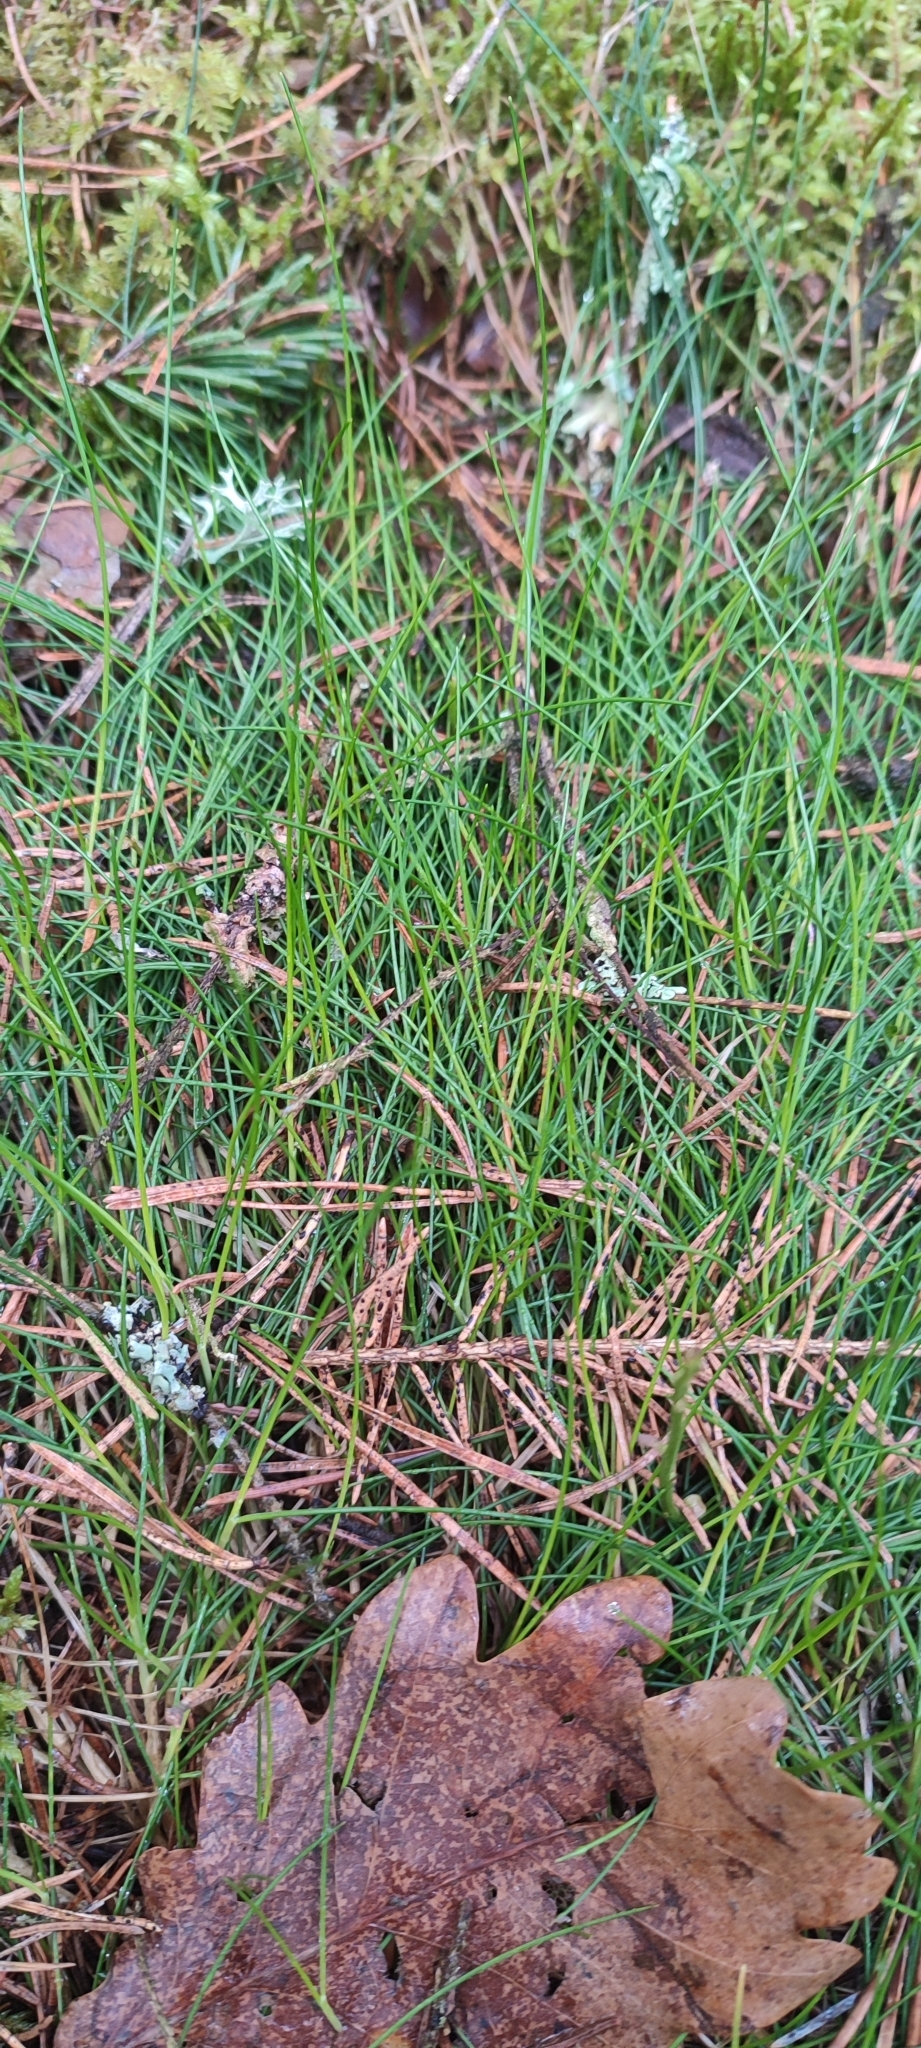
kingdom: Plantae
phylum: Tracheophyta
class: Liliopsida
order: Poales
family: Poaceae
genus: Avenella
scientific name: Avenella flexuosa
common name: Wavy hairgrass
